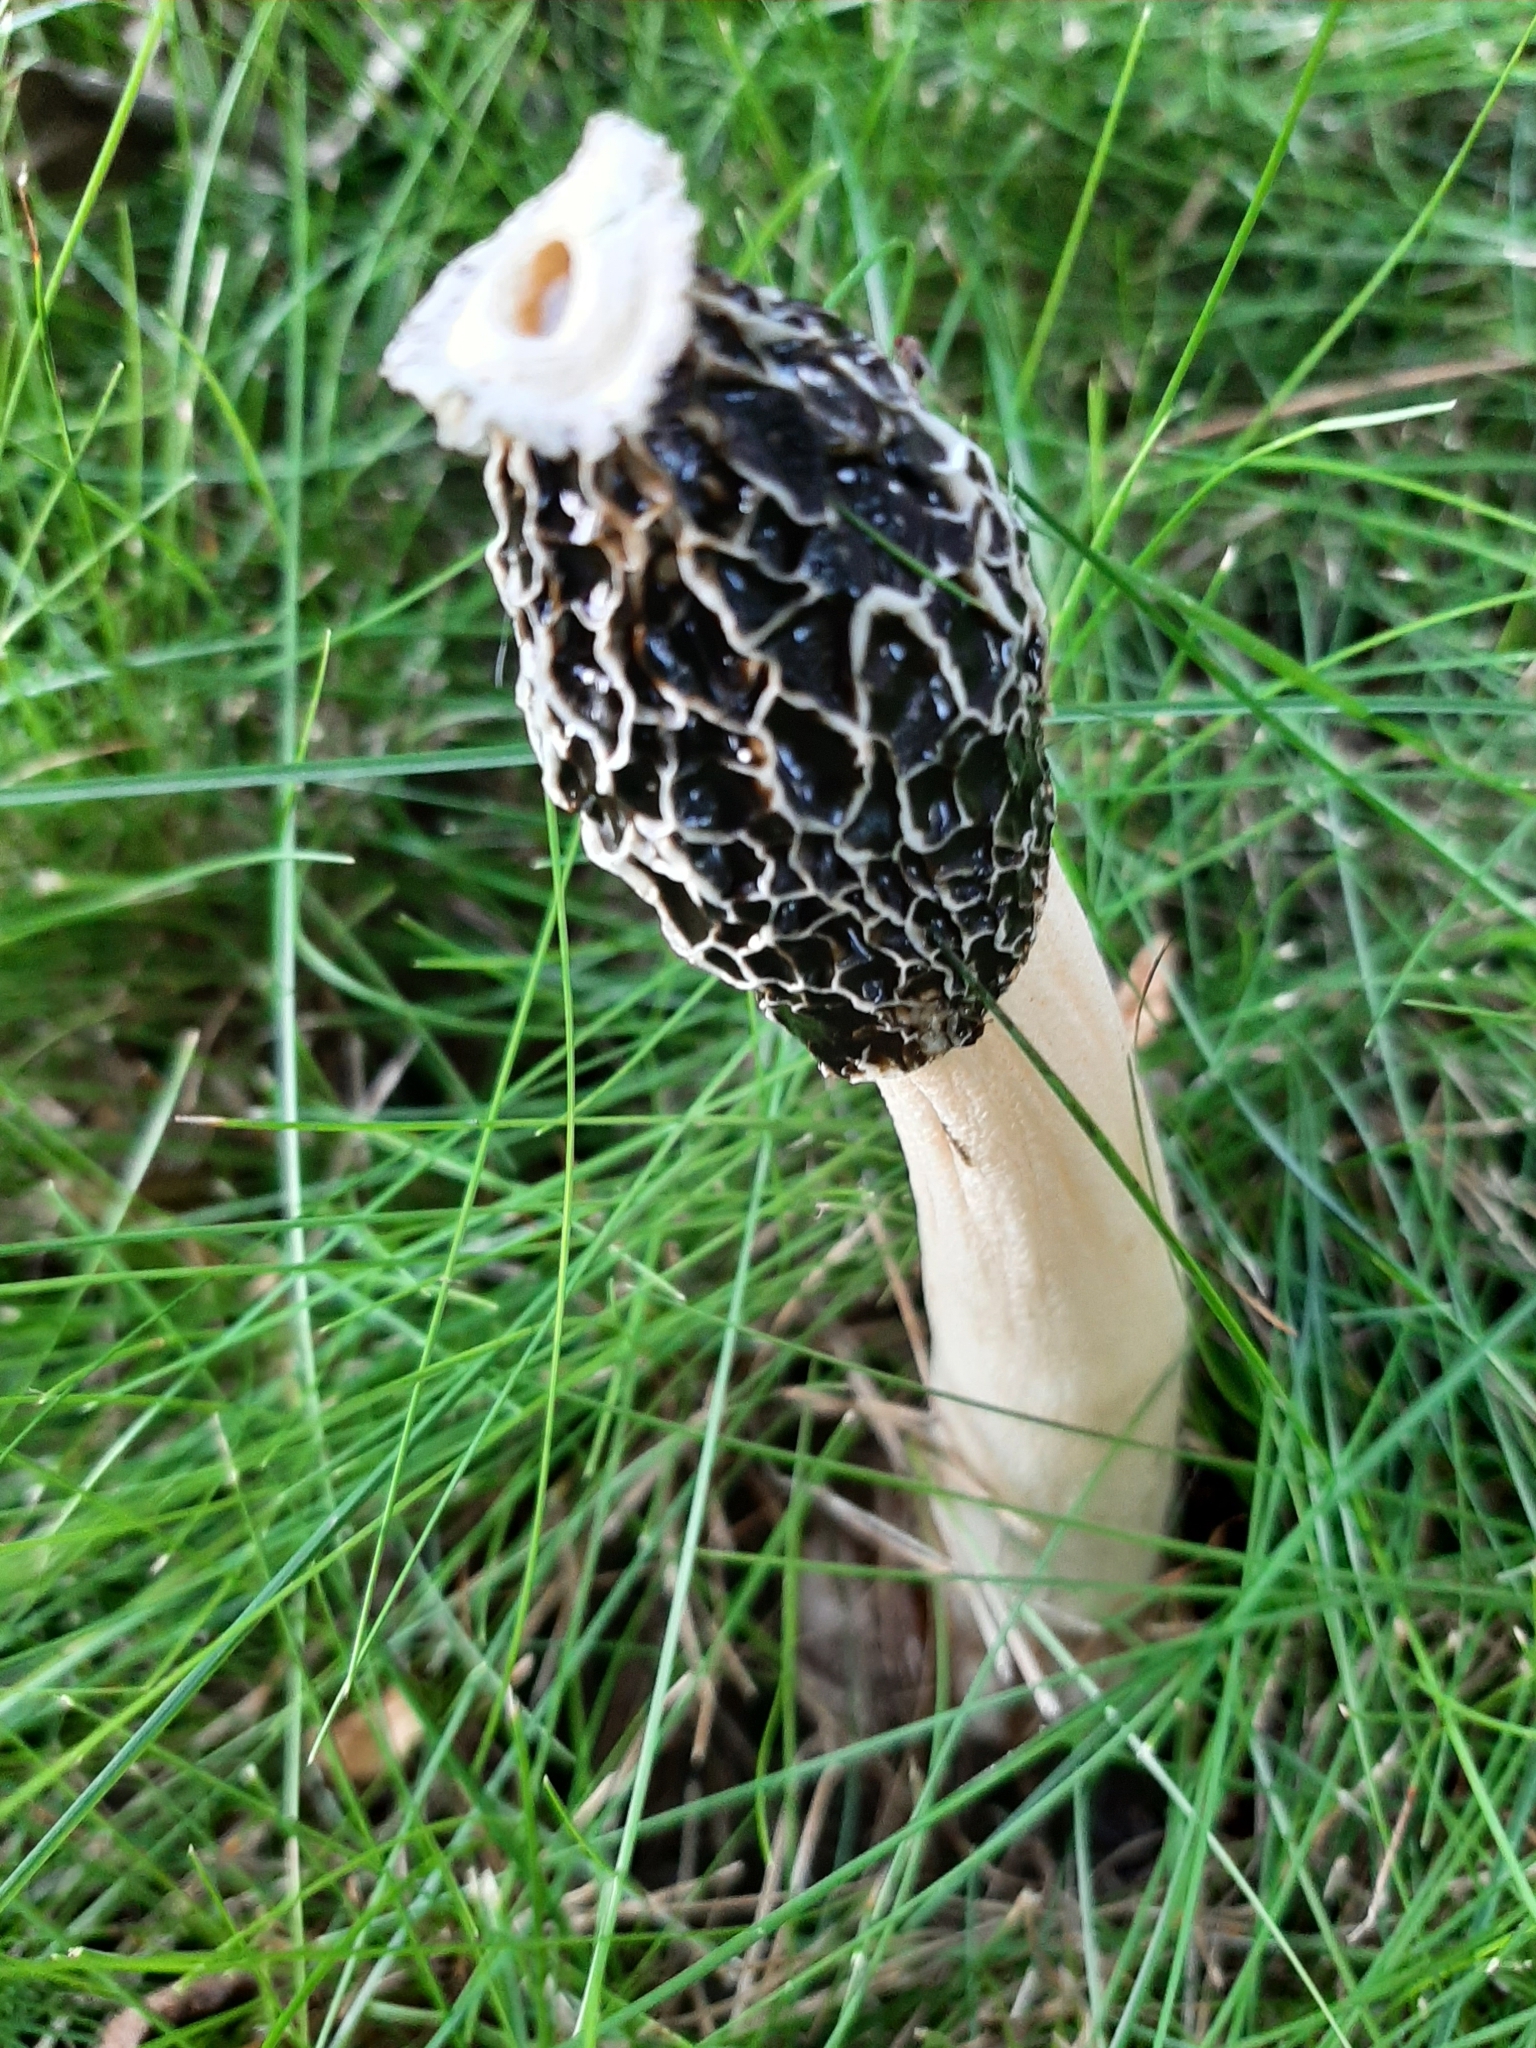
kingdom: Fungi
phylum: Basidiomycota
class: Agaricomycetes
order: Phallales
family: Phallaceae
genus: Phallus
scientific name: Phallus impudicus
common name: Common stinkhorn
